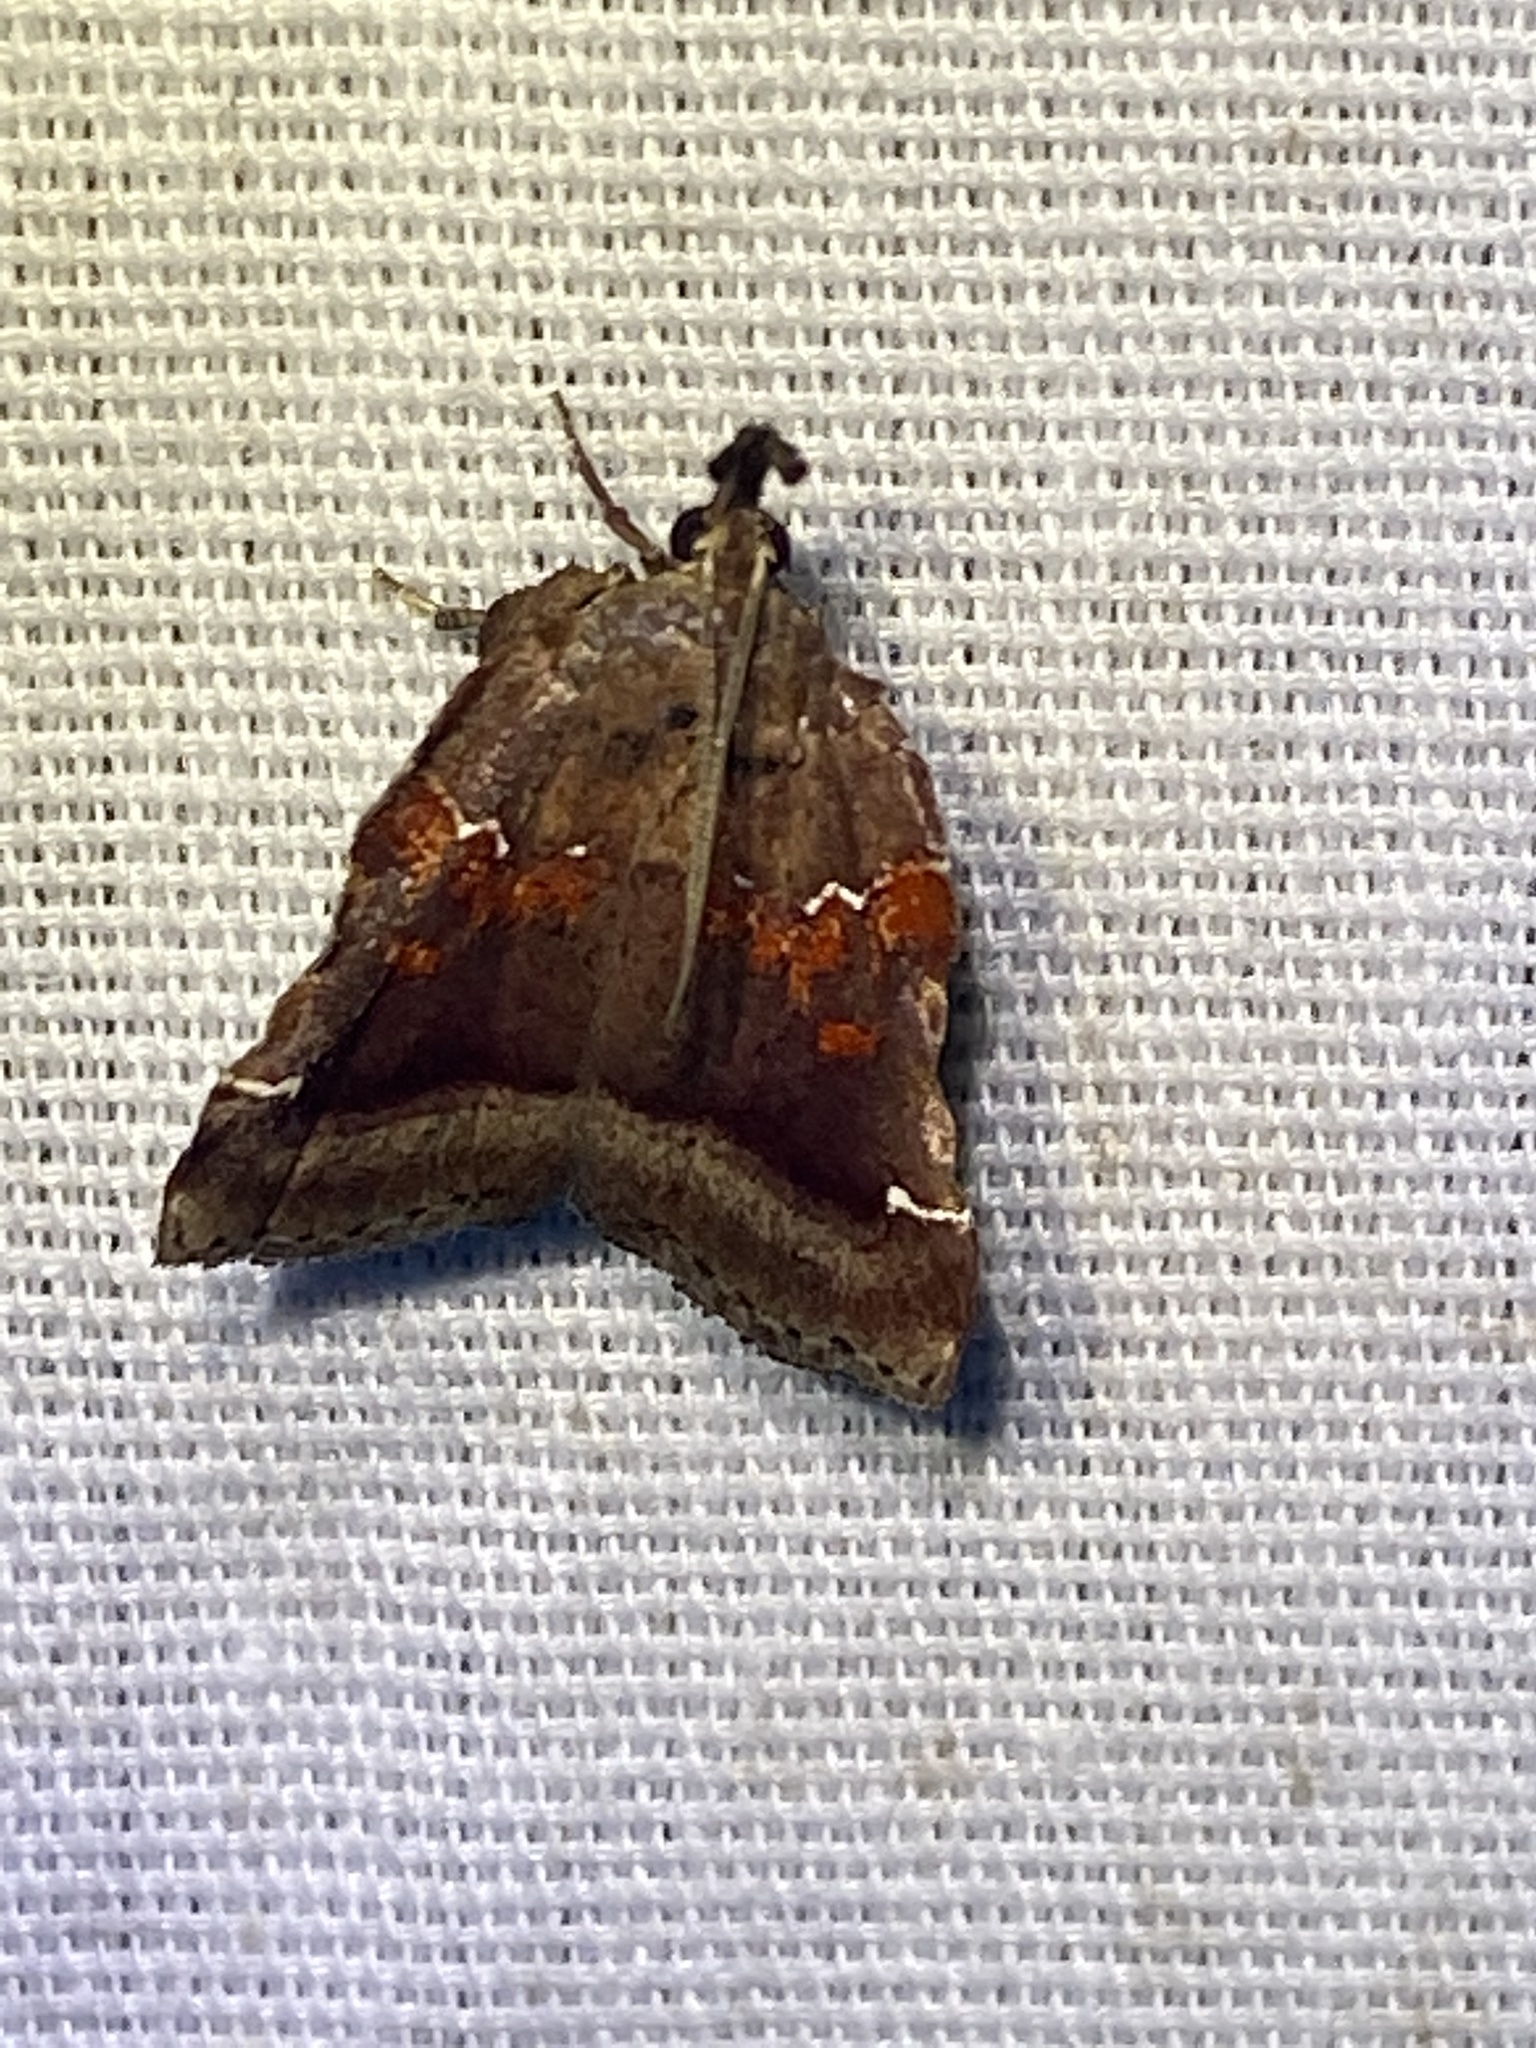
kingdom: Animalia
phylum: Arthropoda
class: Insecta
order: Lepidoptera
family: Pyralidae
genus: Clydonopteron
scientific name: Clydonopteron sacculana
